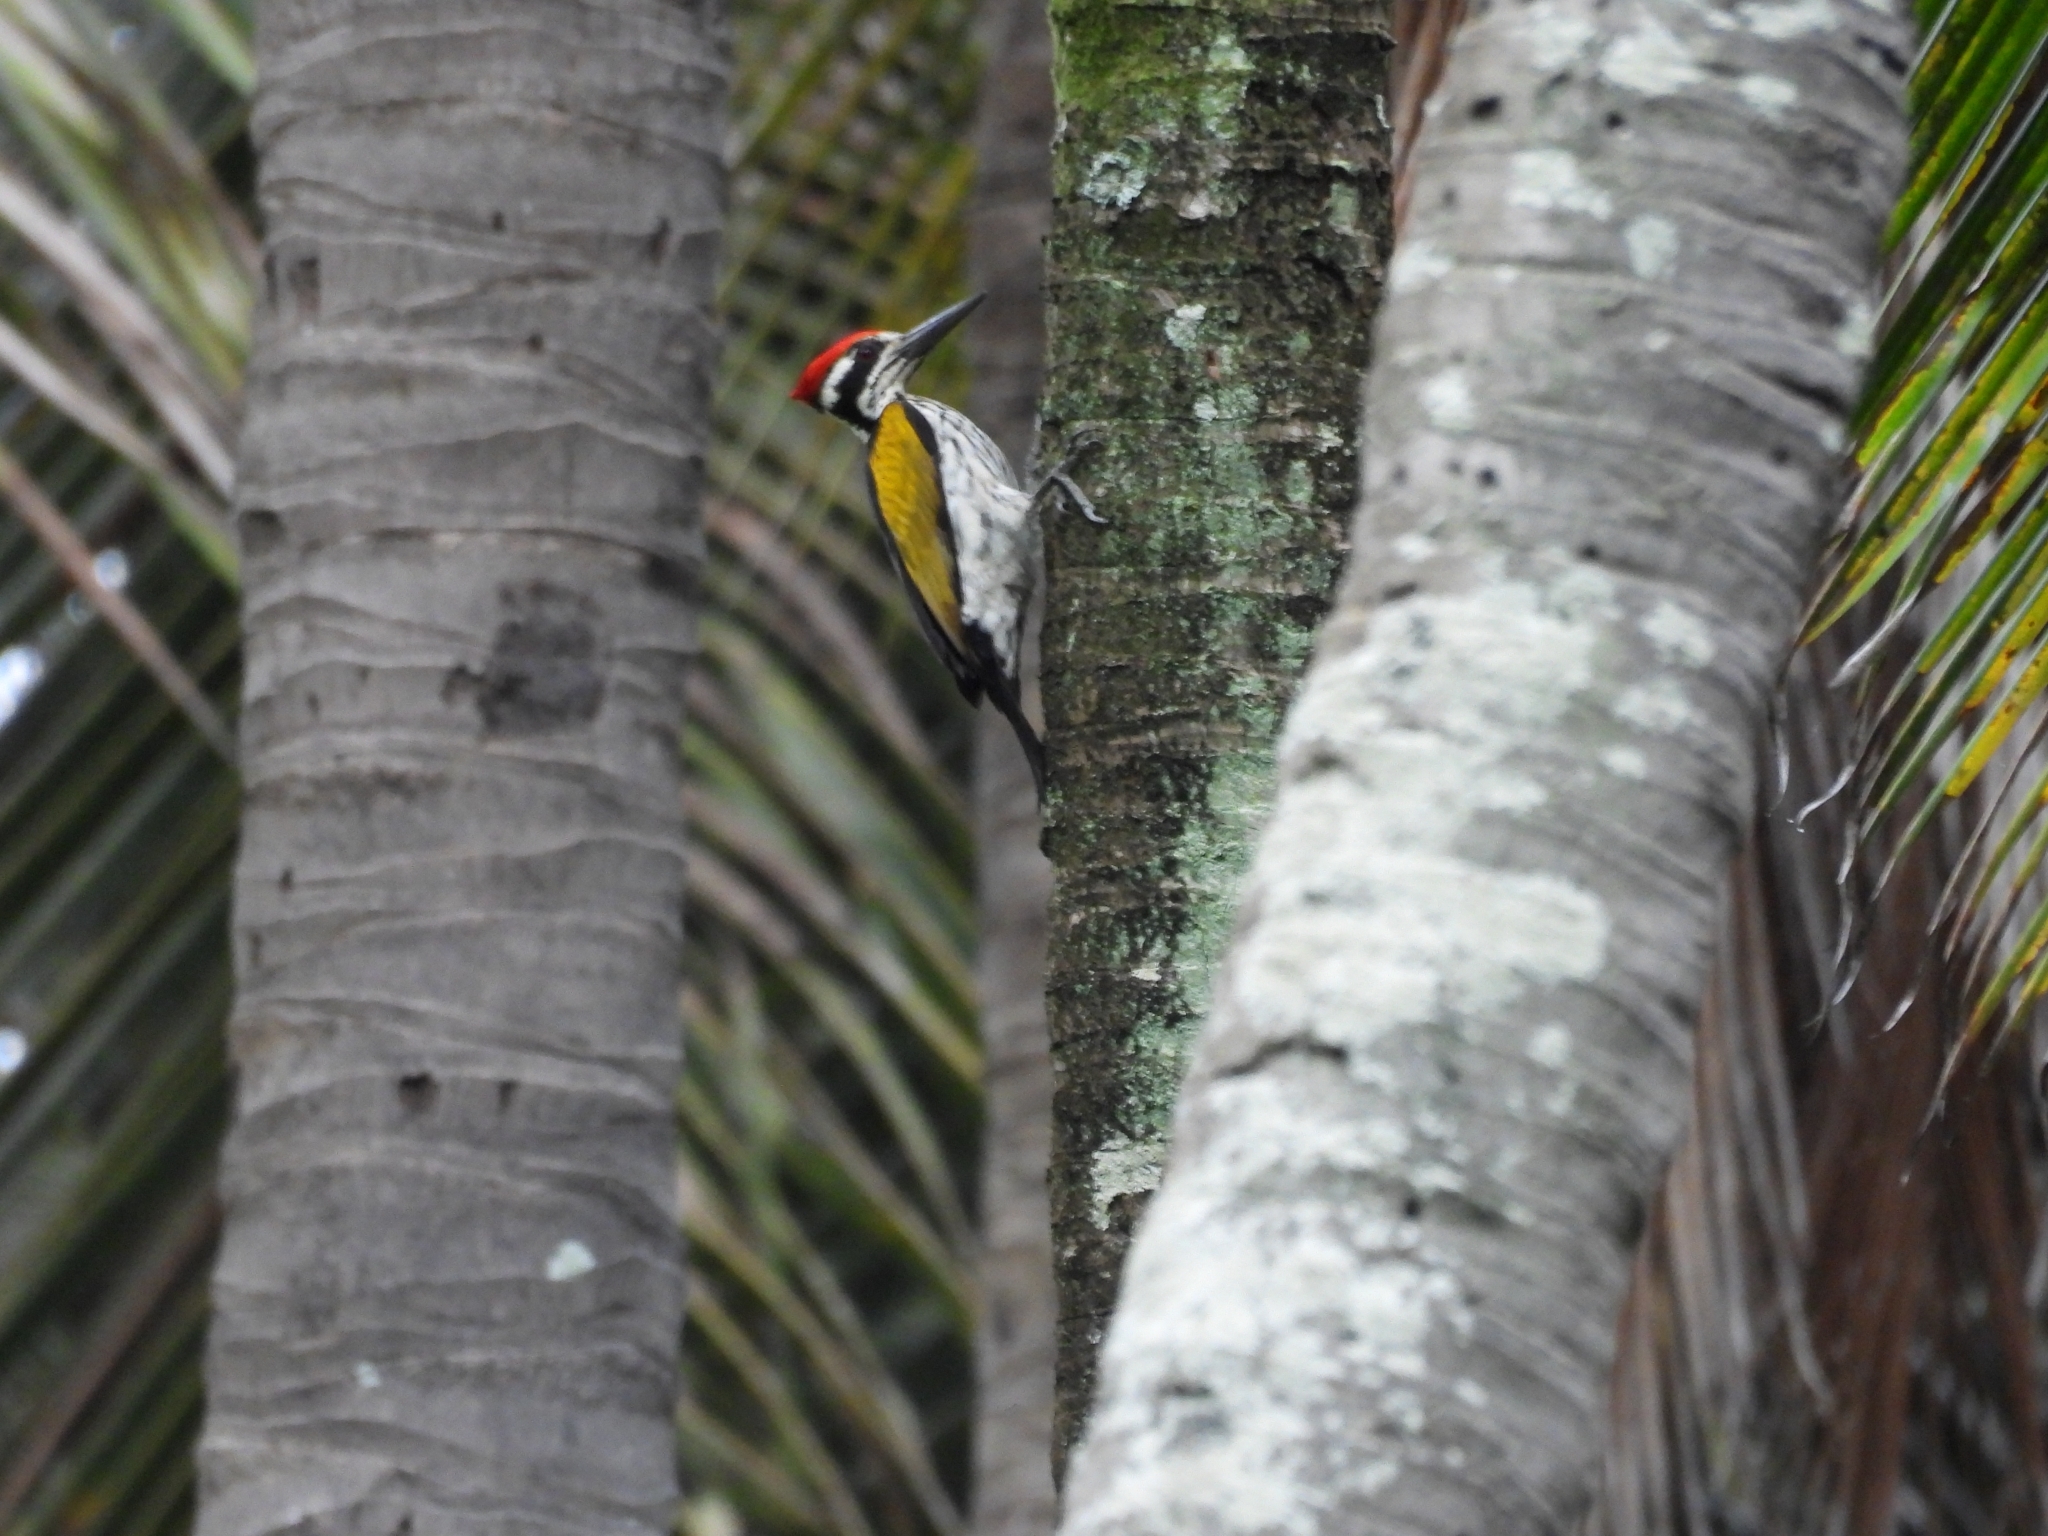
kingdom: Animalia
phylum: Chordata
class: Aves
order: Piciformes
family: Picidae
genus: Chrysocolaptes
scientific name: Chrysocolaptes festivus
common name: White-naped woodpecker
